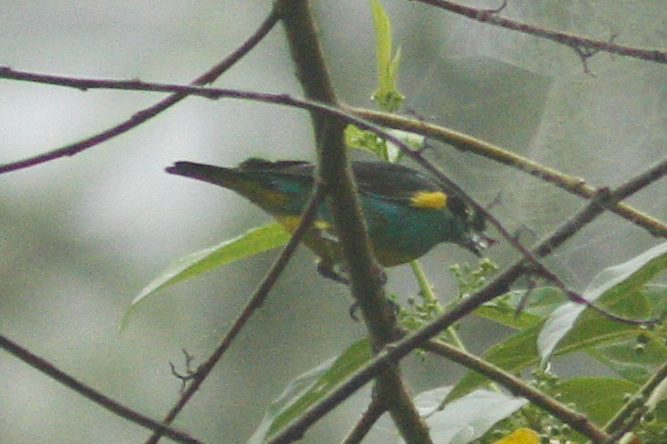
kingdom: Animalia
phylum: Chordata
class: Aves
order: Passeriformes
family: Thraupidae
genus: Dacnis
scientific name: Dacnis lineata
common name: Black-faced dacnis
